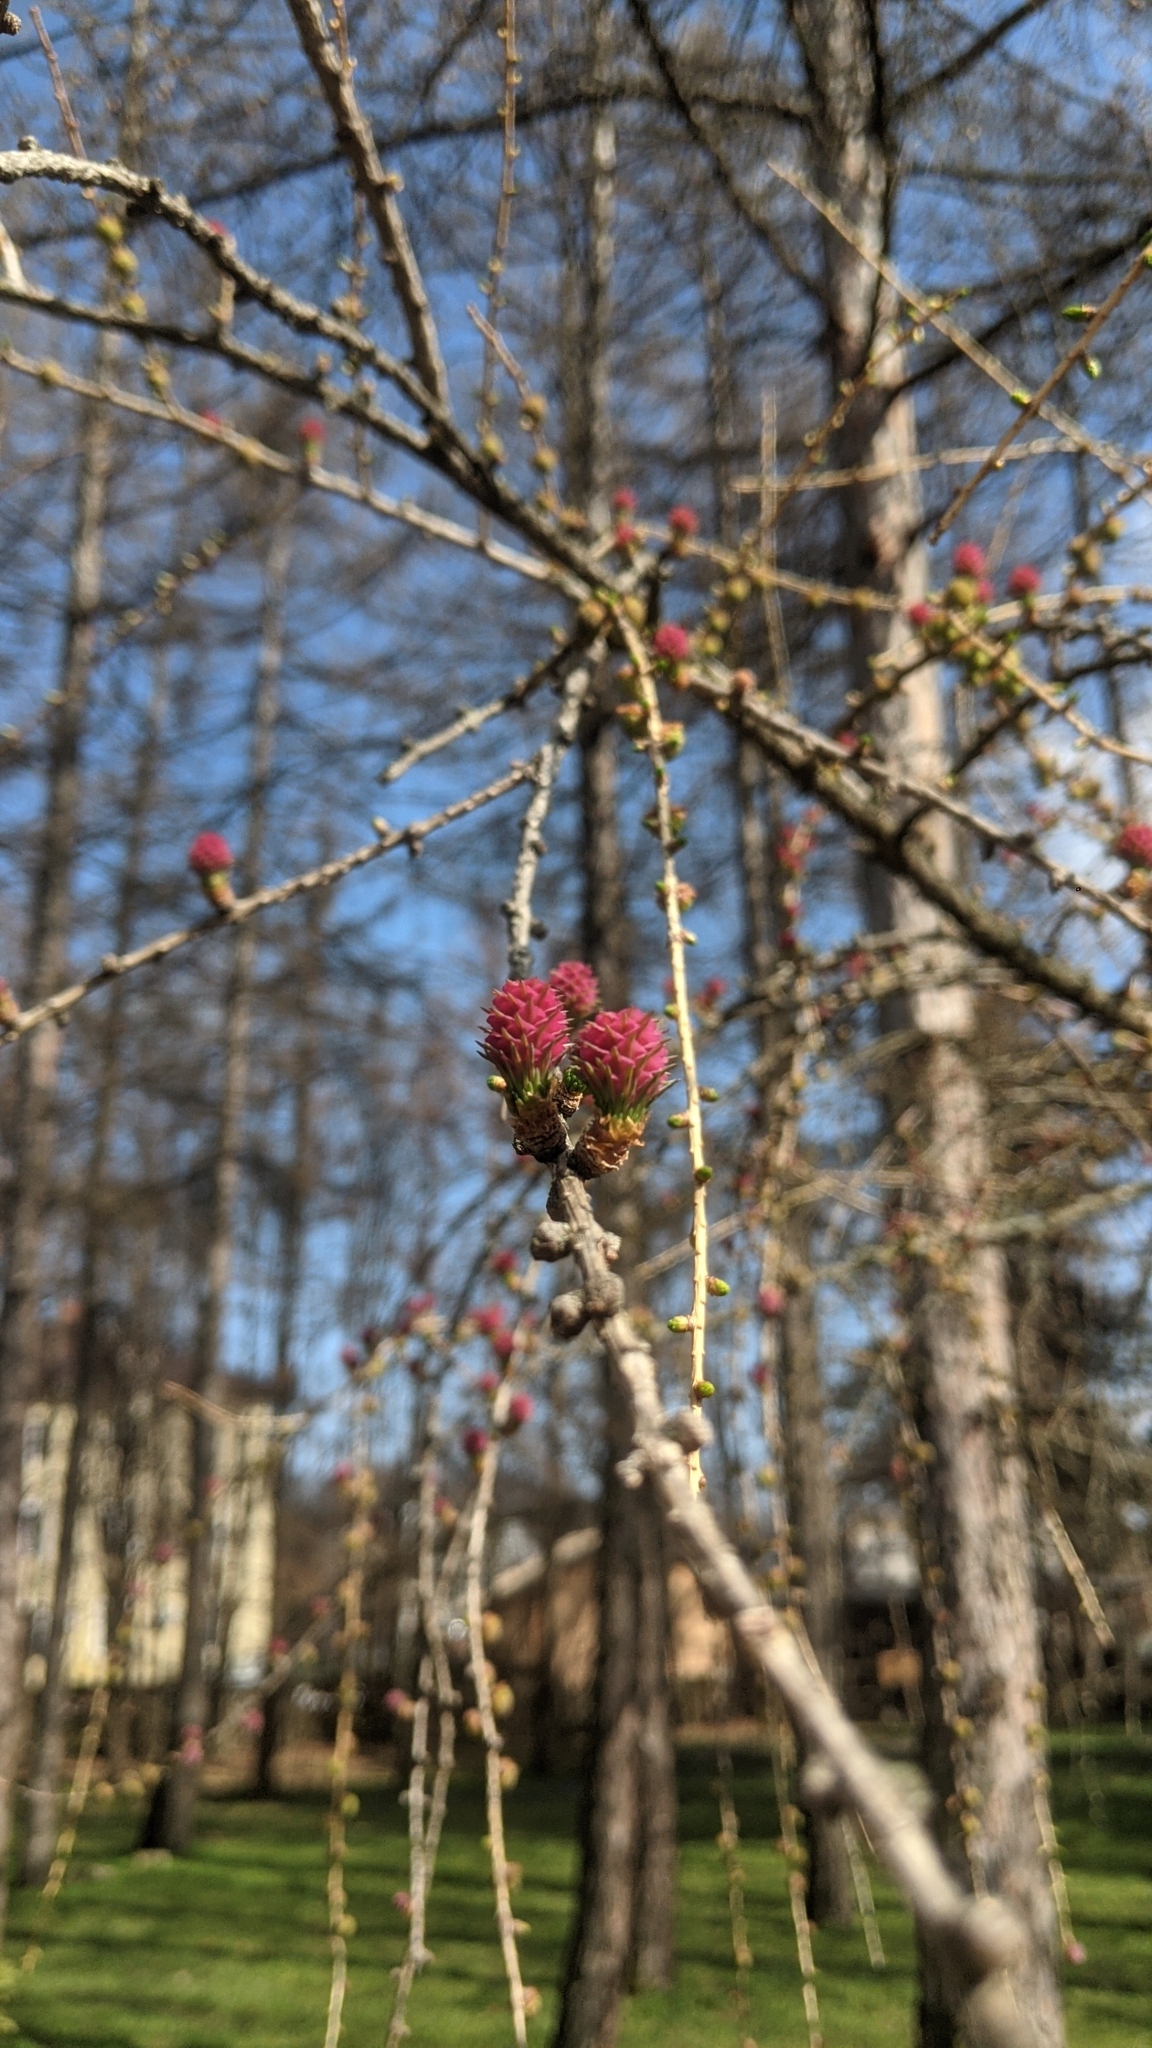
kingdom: Plantae
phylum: Tracheophyta
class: Pinopsida
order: Pinales
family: Pinaceae
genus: Larix
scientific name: Larix decidua
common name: European larch
